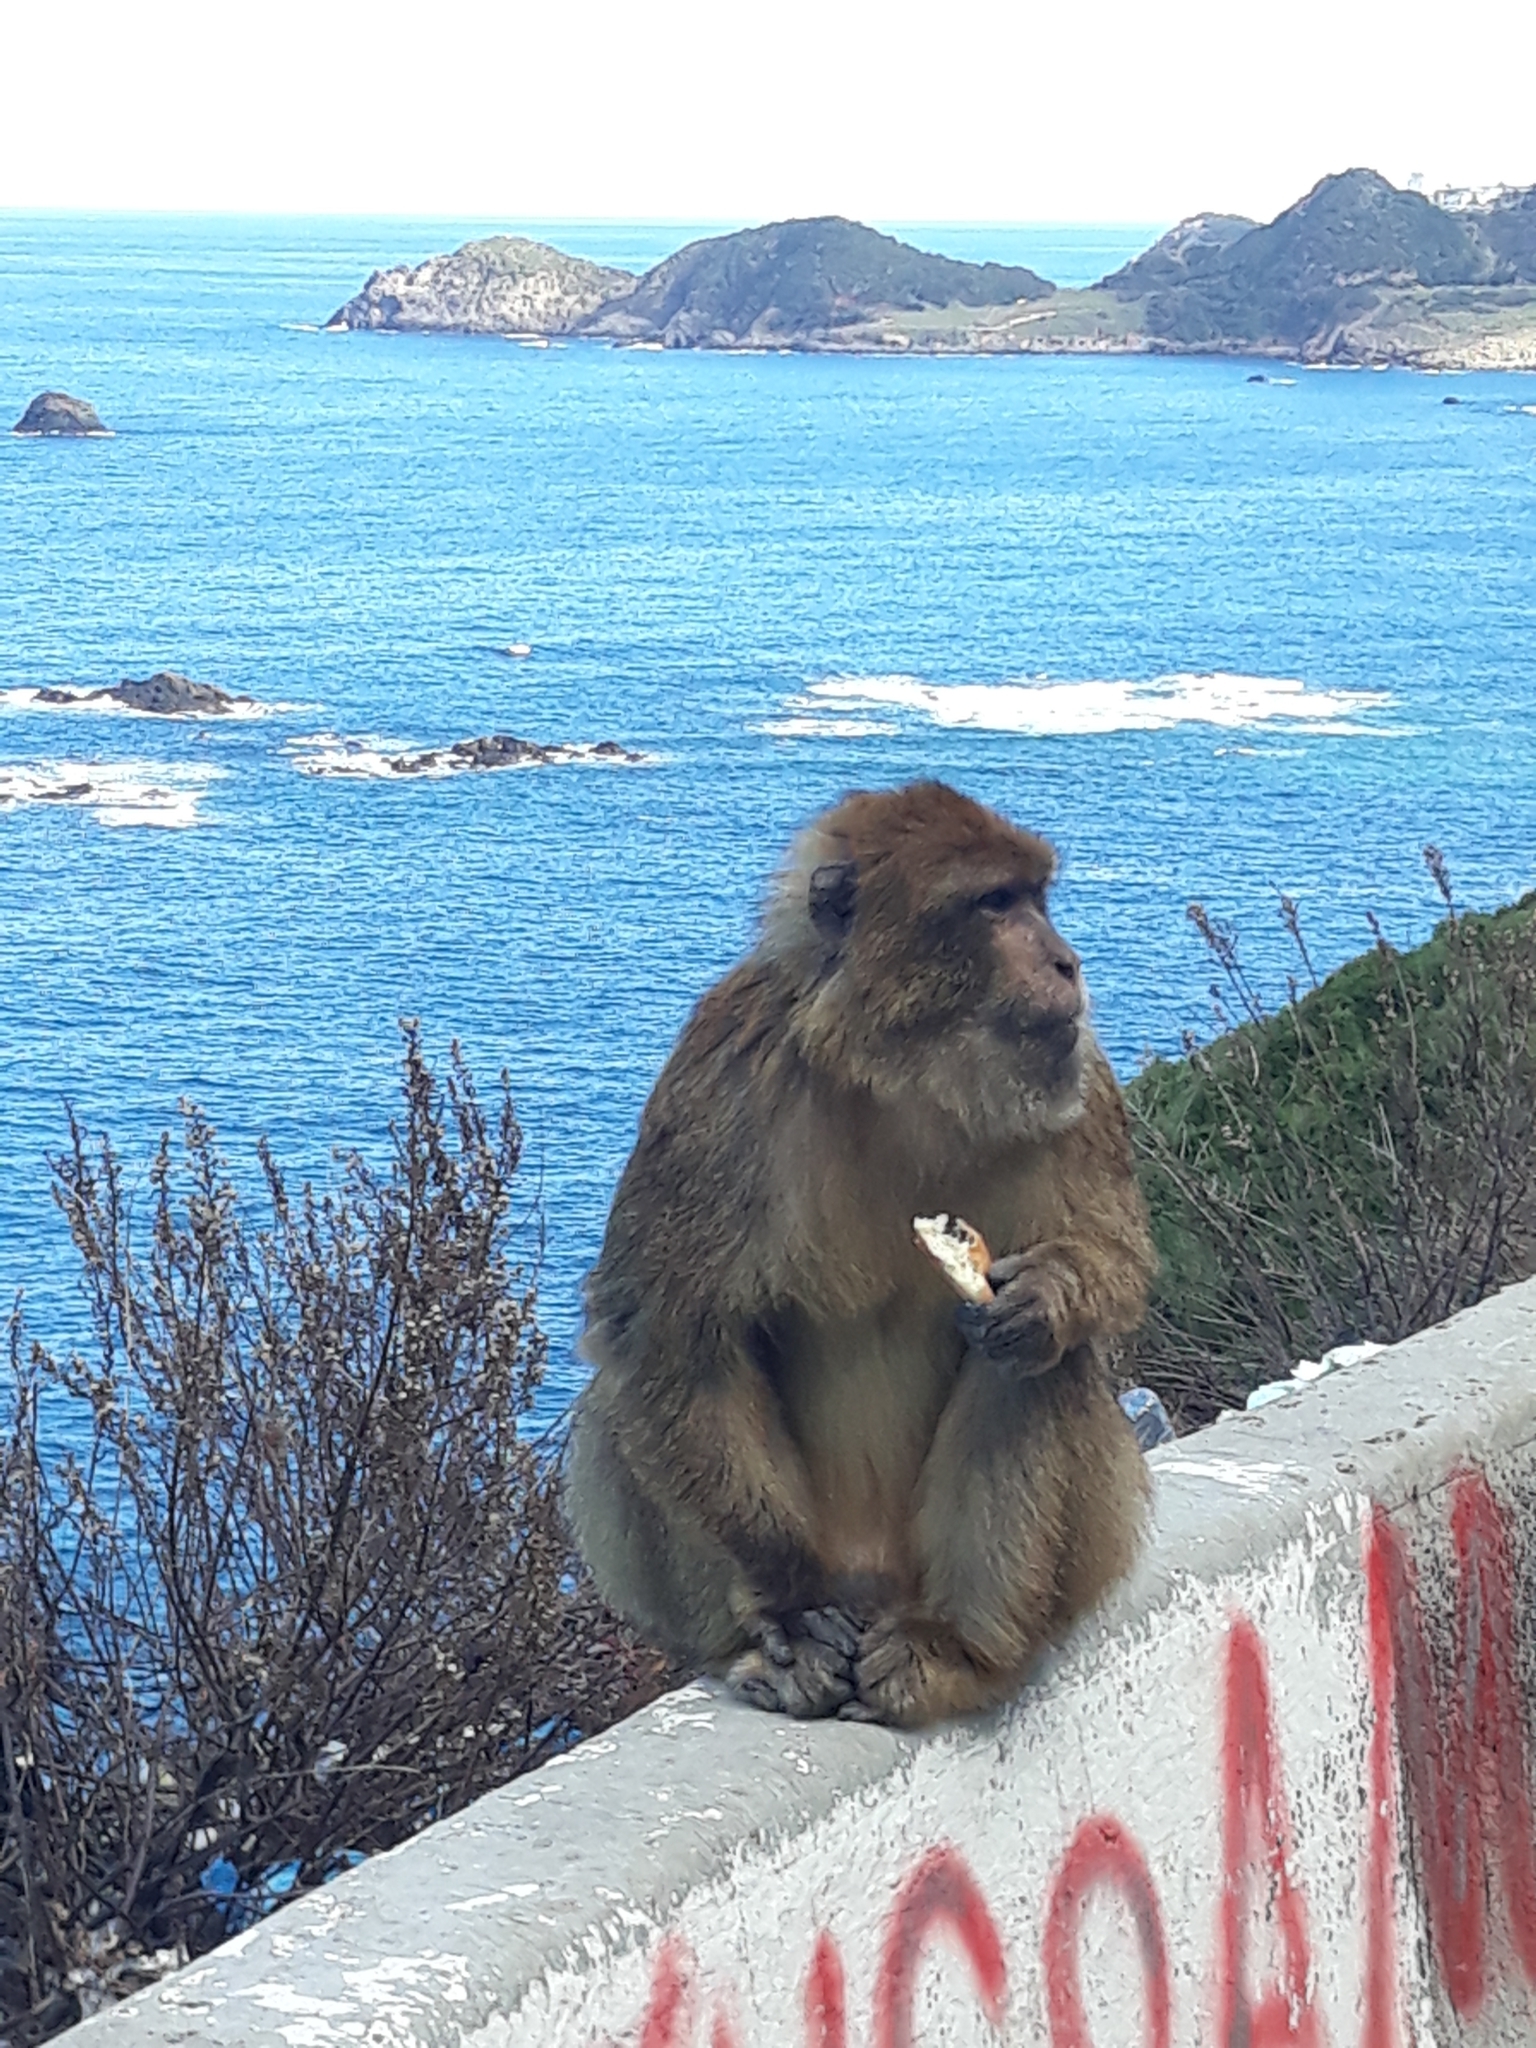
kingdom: Animalia
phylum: Chordata
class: Mammalia
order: Primates
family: Cercopithecidae
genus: Macaca
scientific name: Macaca sylvanus
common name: Barbary macaque
